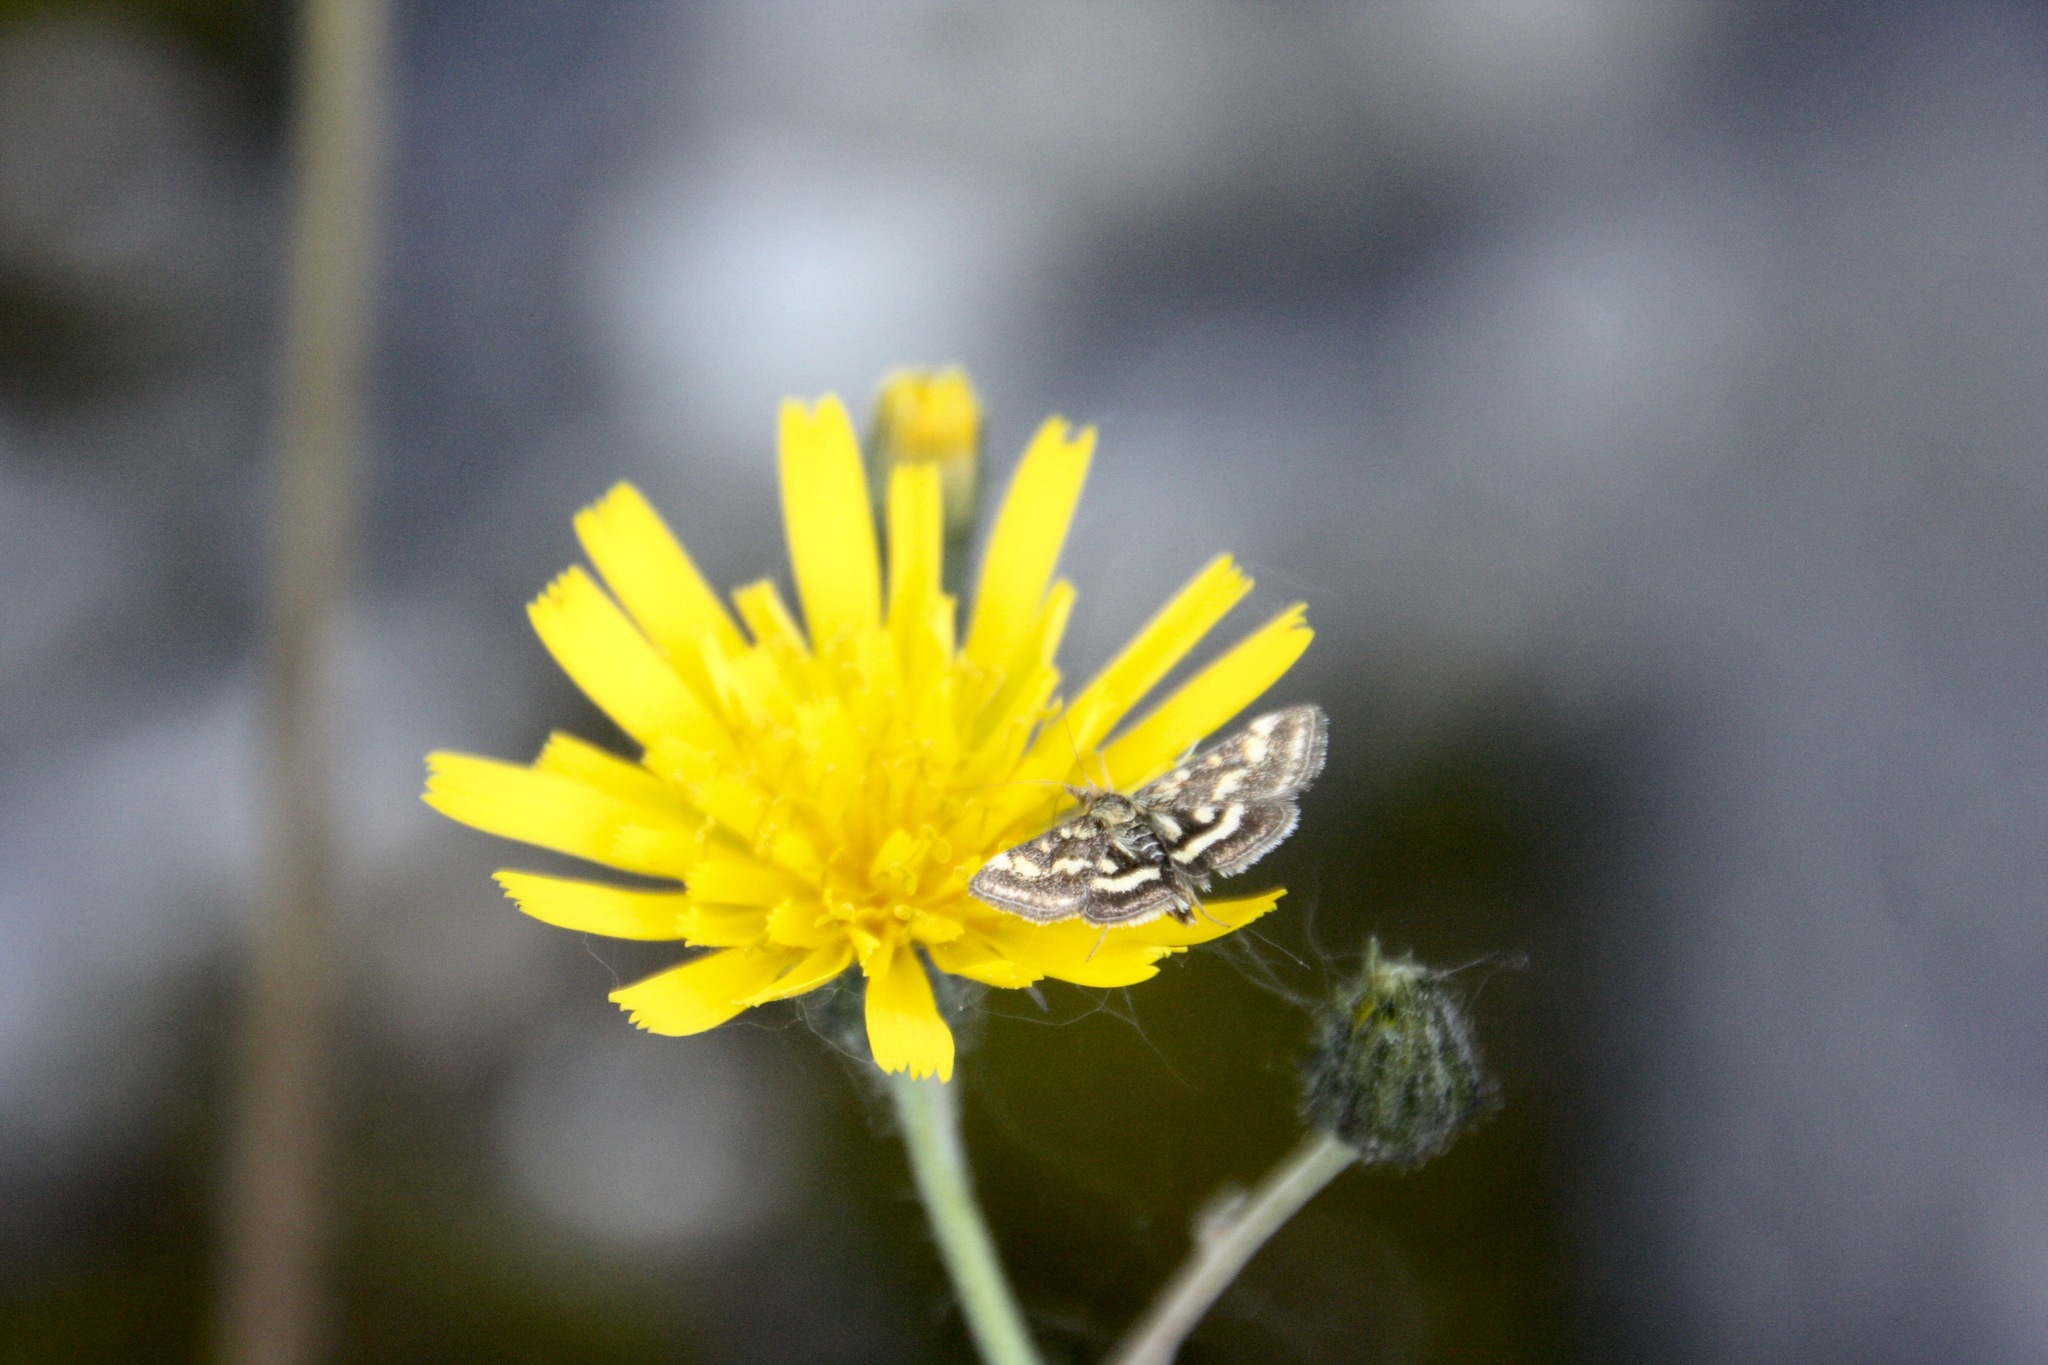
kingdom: Animalia
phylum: Arthropoda
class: Insecta
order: Lepidoptera
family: Crambidae
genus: Pyrausta
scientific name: Pyrausta purpuralis
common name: Common purple & gold
